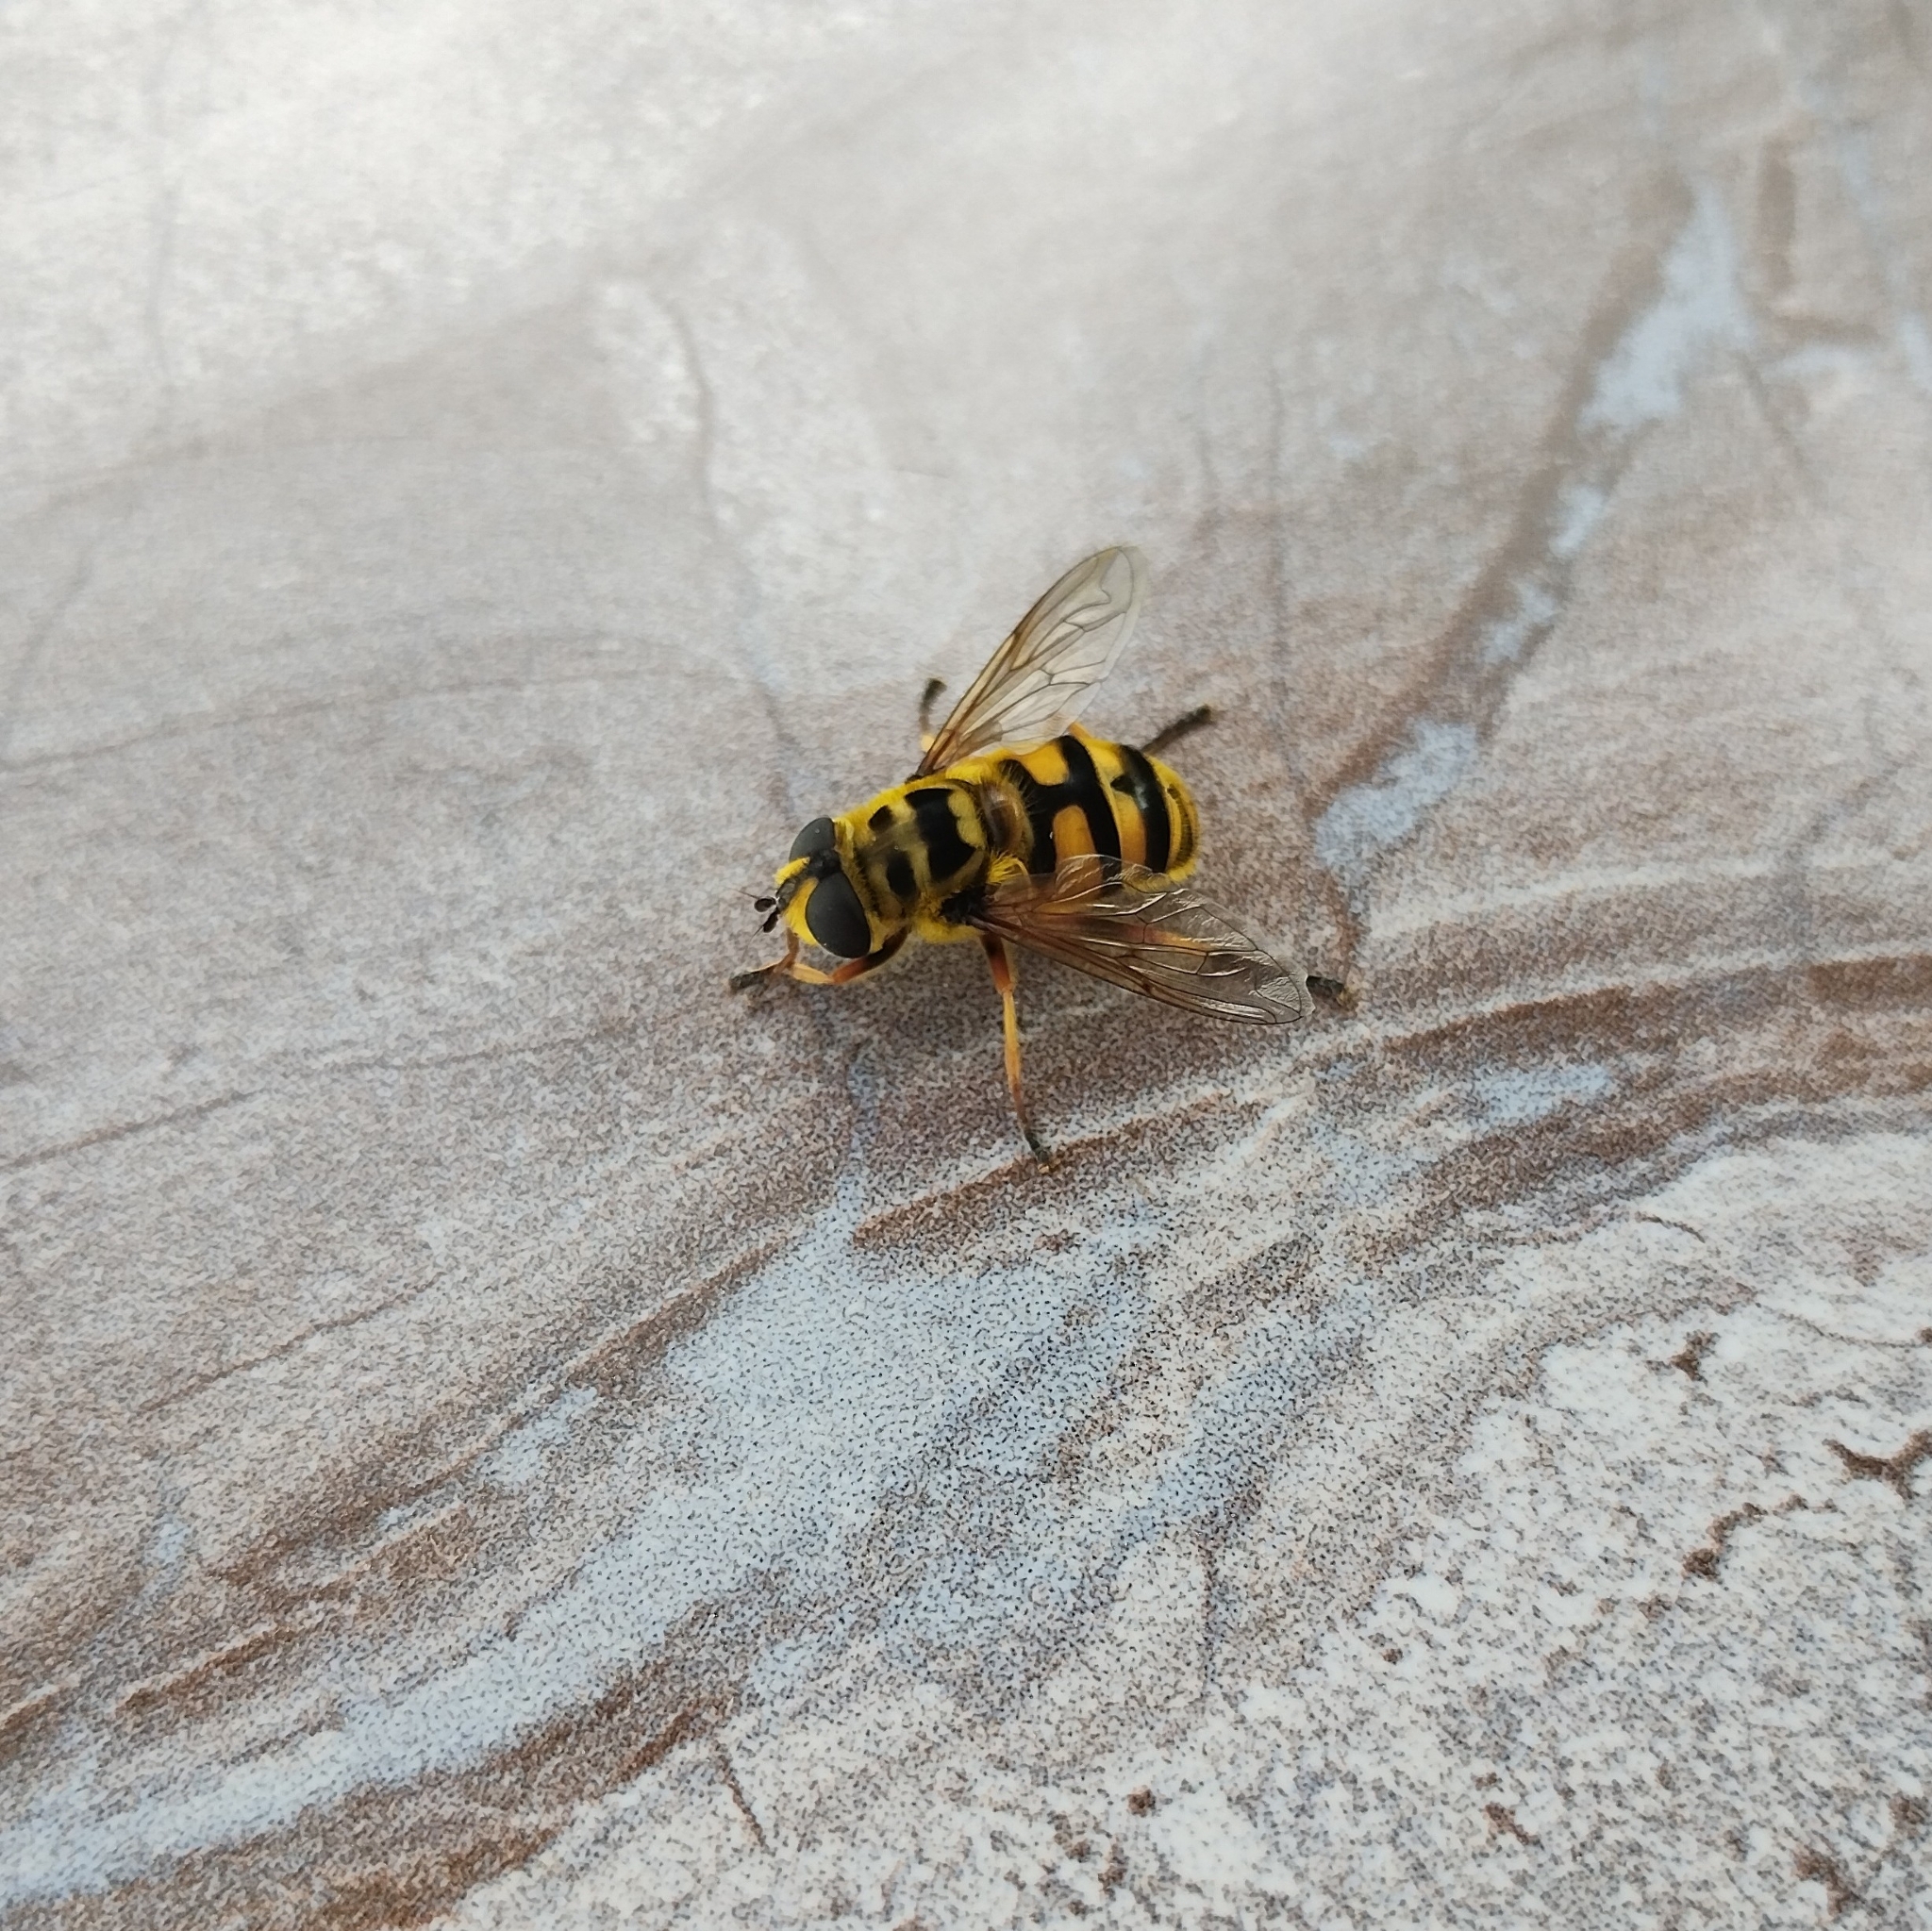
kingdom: Animalia
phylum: Arthropoda
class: Insecta
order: Diptera
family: Syrphidae
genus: Myathropa
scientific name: Myathropa florea
